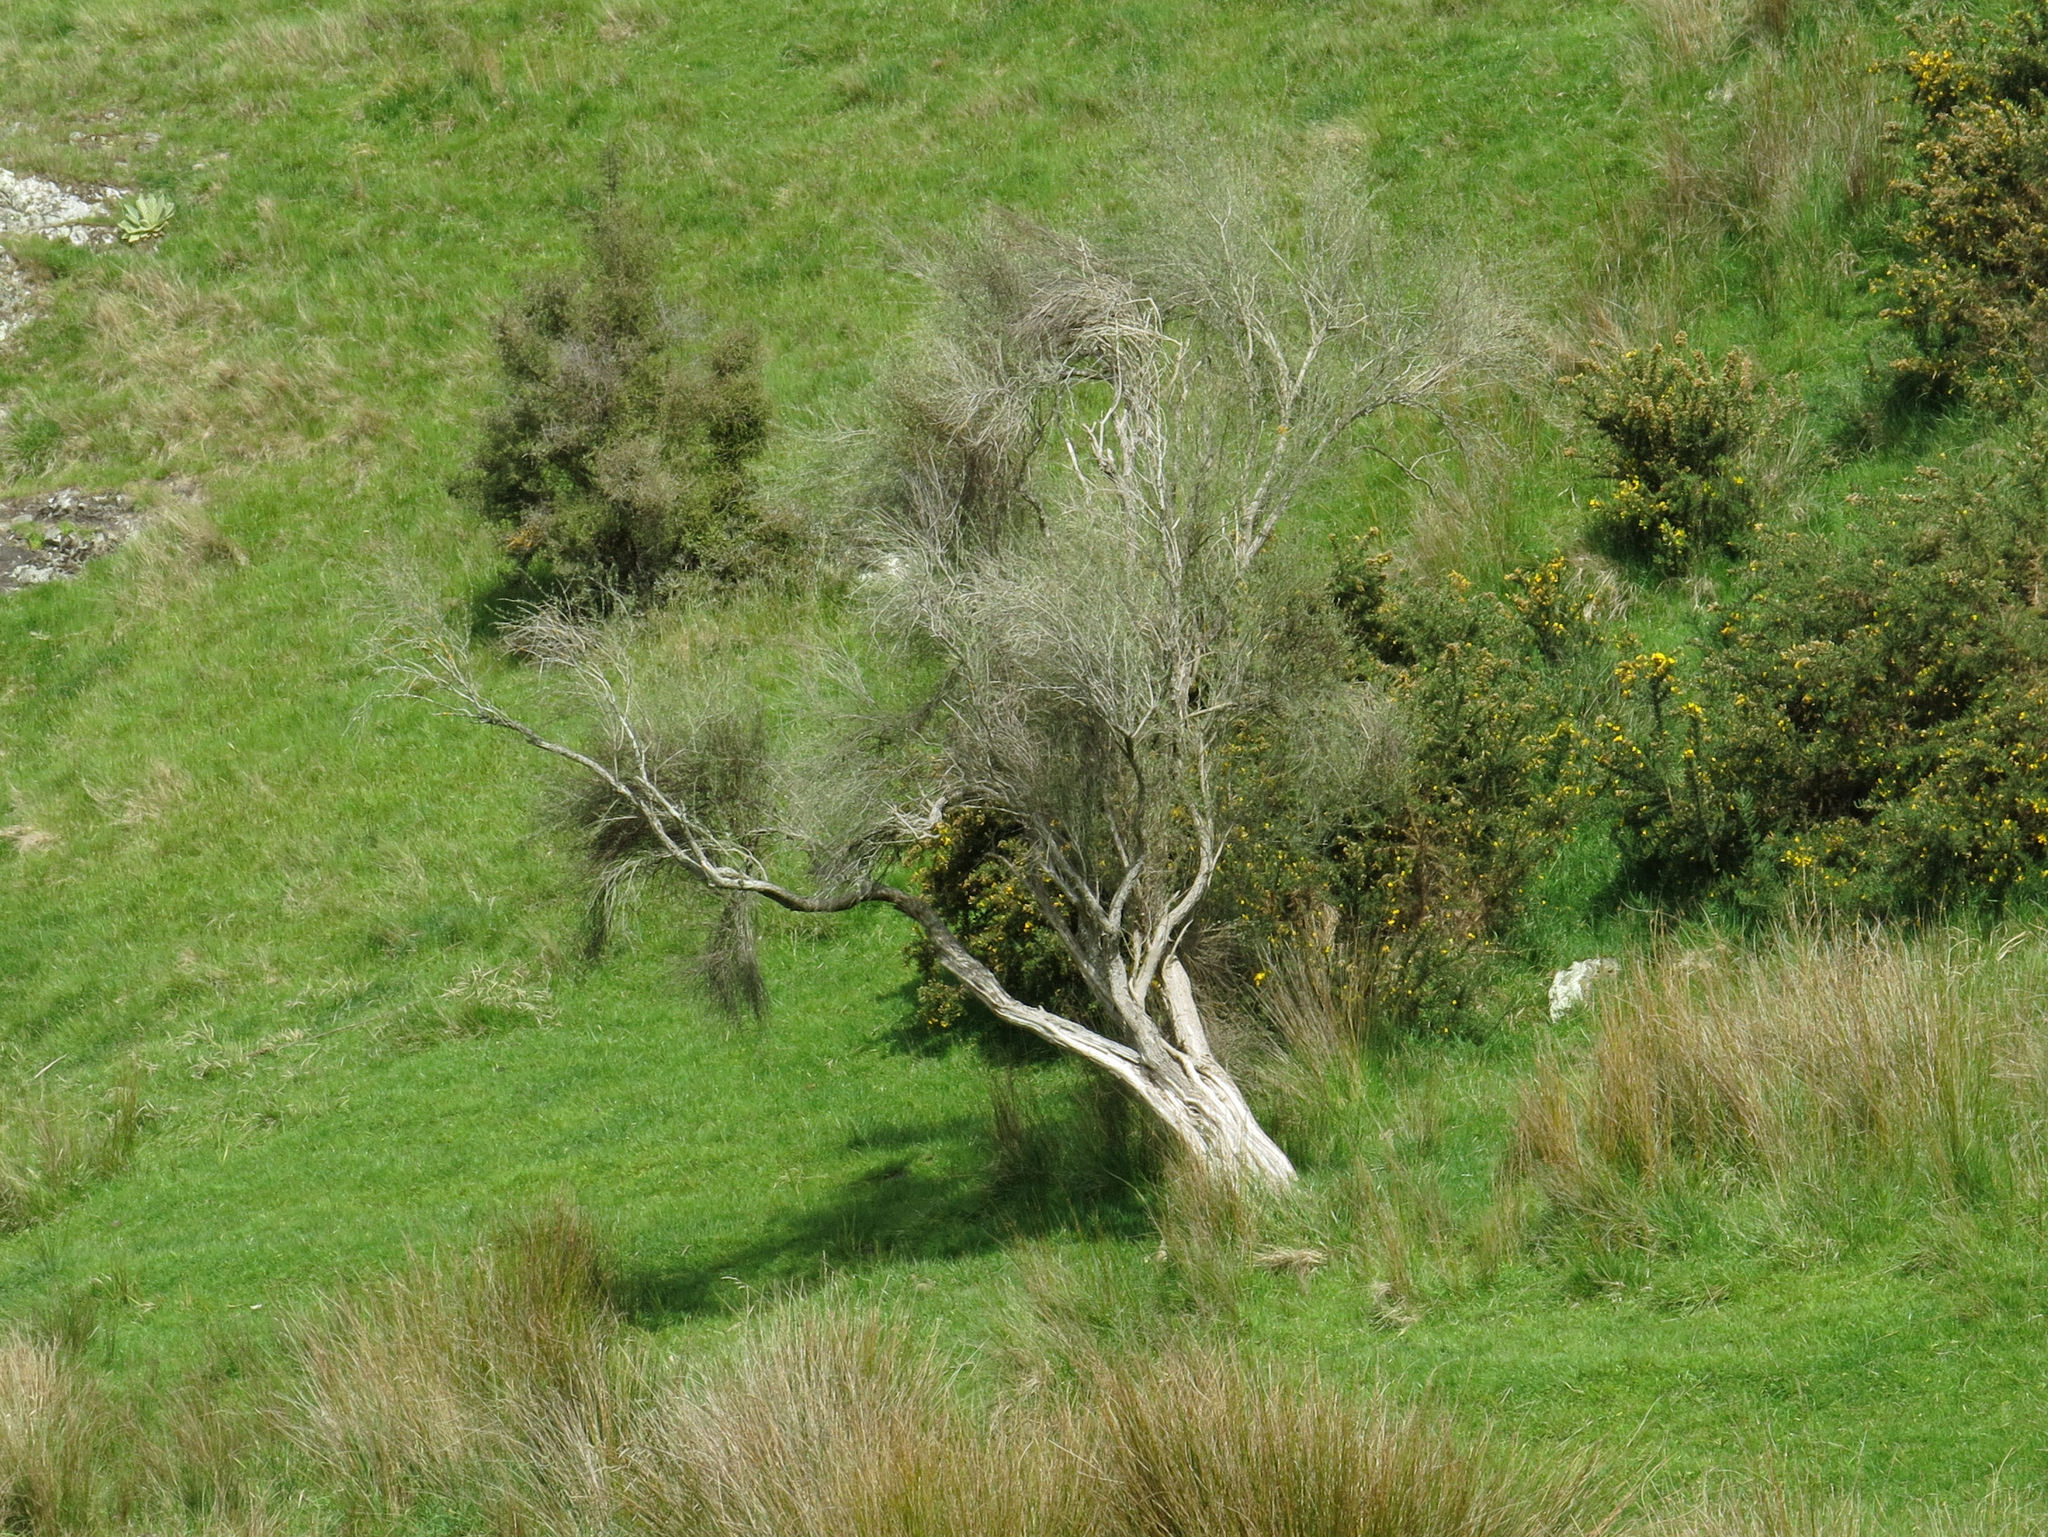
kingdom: Plantae
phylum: Tracheophyta
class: Magnoliopsida
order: Asterales
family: Asteraceae
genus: Olearia
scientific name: Olearia lineata
